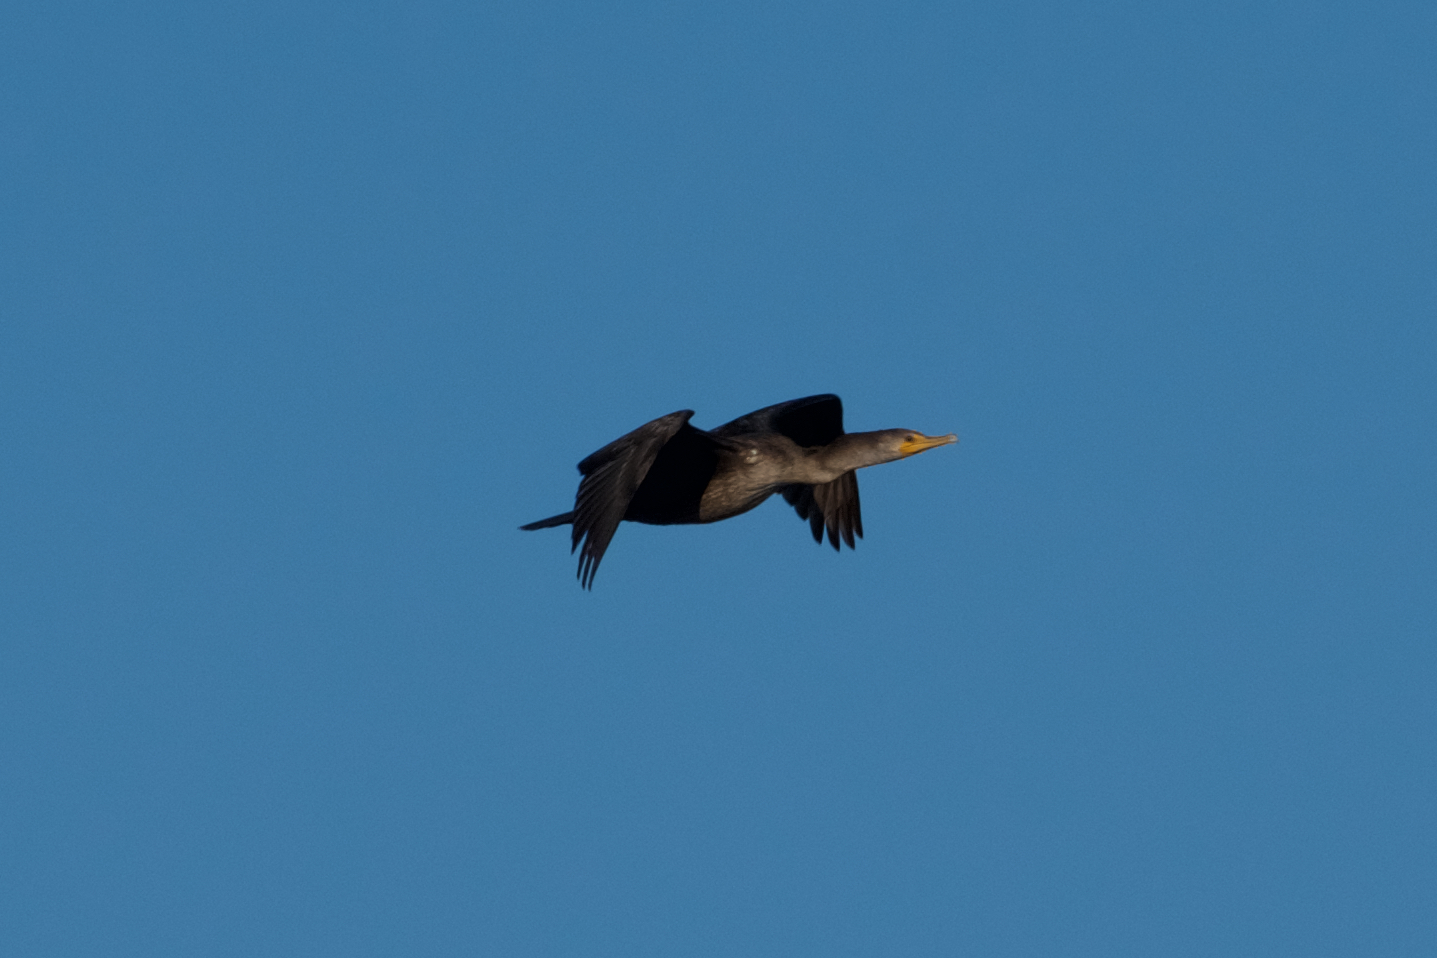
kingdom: Animalia
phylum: Chordata
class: Aves
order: Suliformes
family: Phalacrocoracidae
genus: Phalacrocorax
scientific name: Phalacrocorax auritus
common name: Double-crested cormorant
